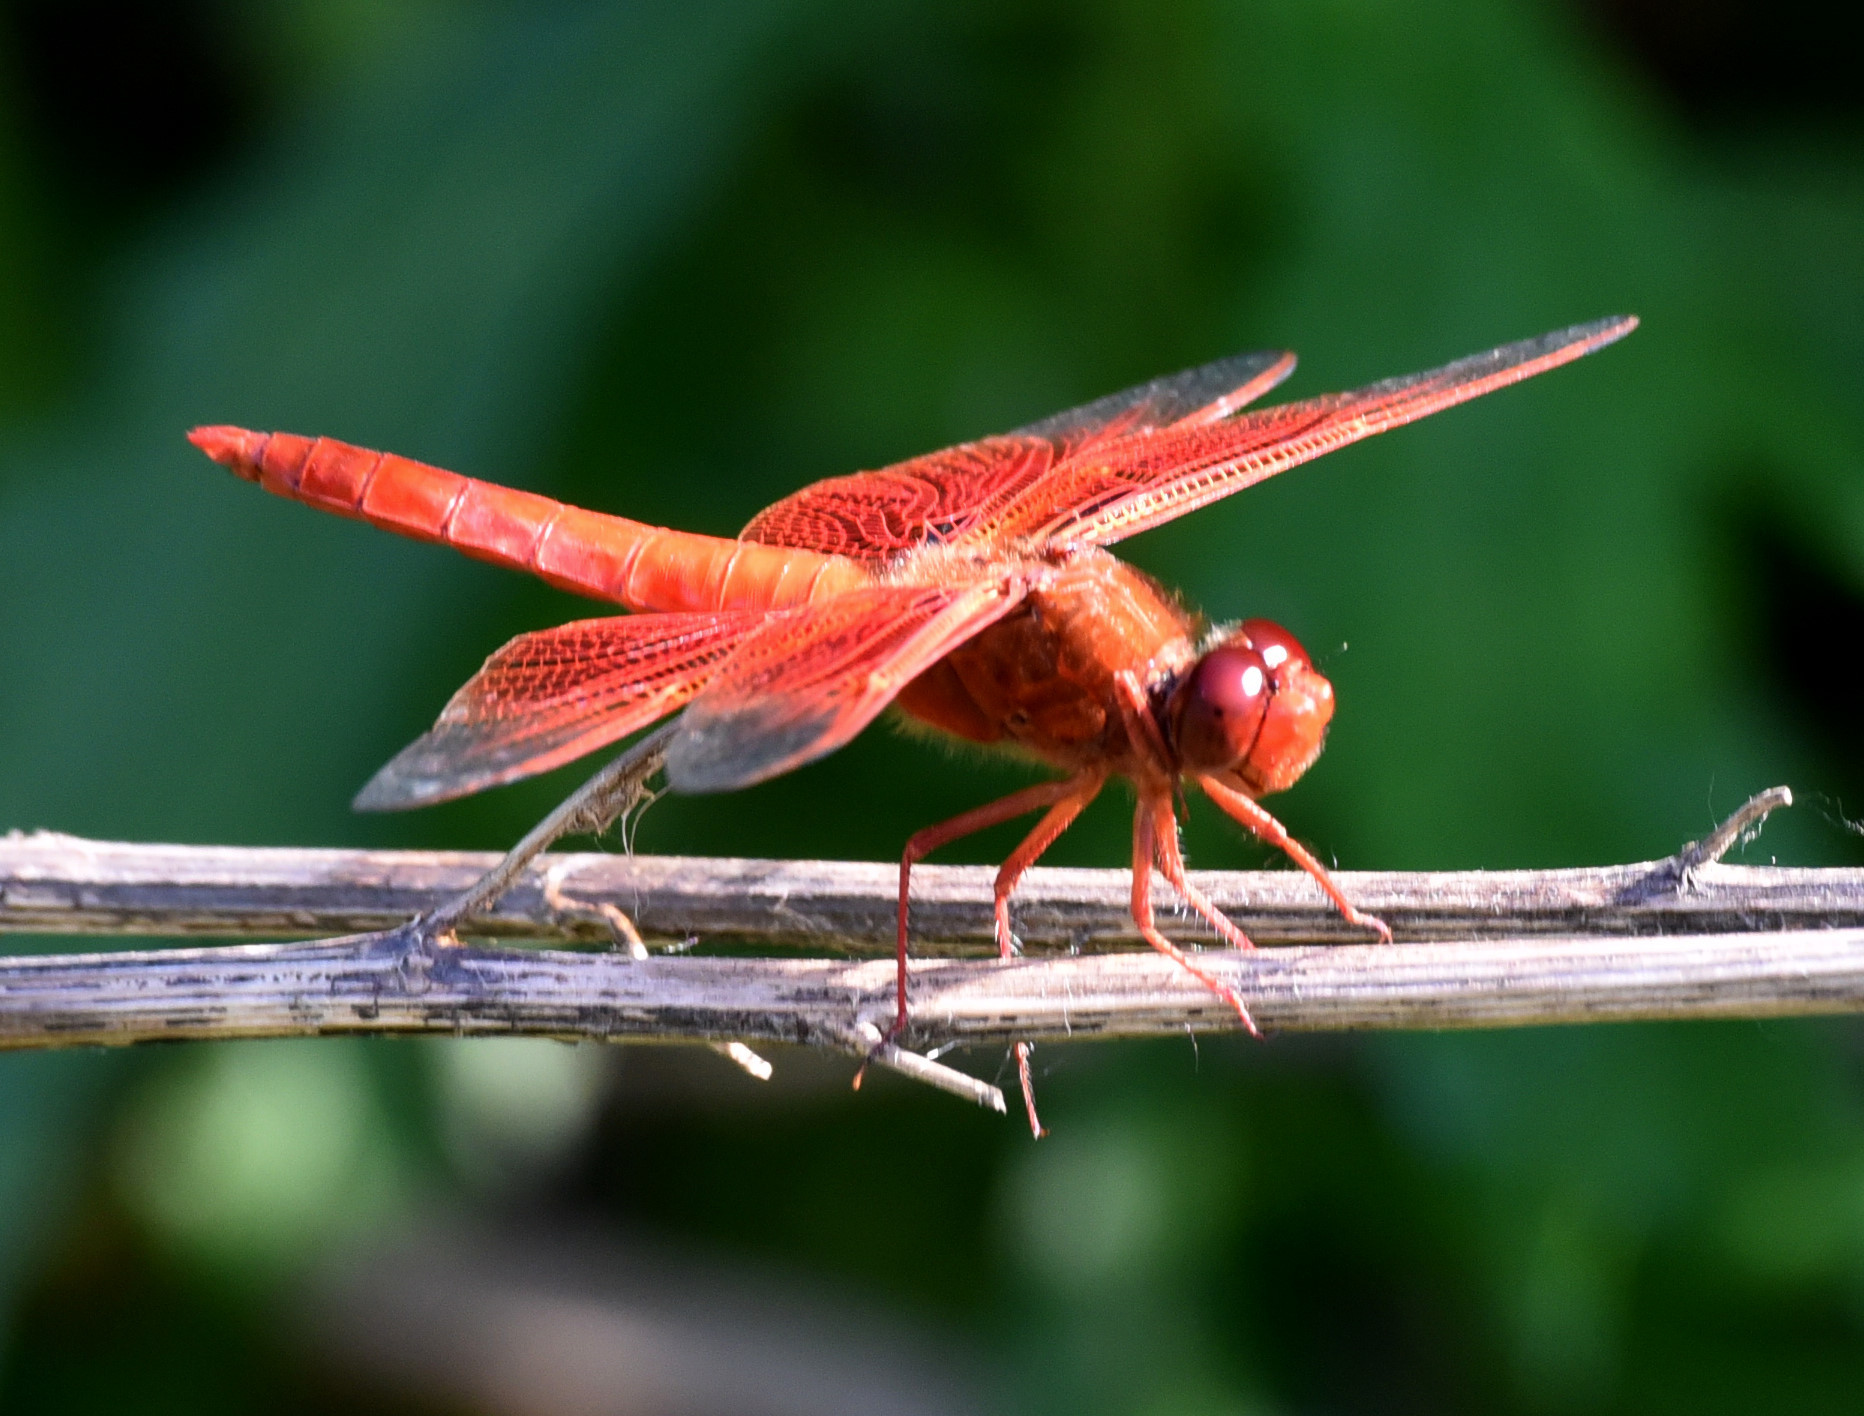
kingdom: Animalia
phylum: Arthropoda
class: Insecta
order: Odonata
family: Libellulidae
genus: Libellula
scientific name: Libellula saturata
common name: Flame skimmer
